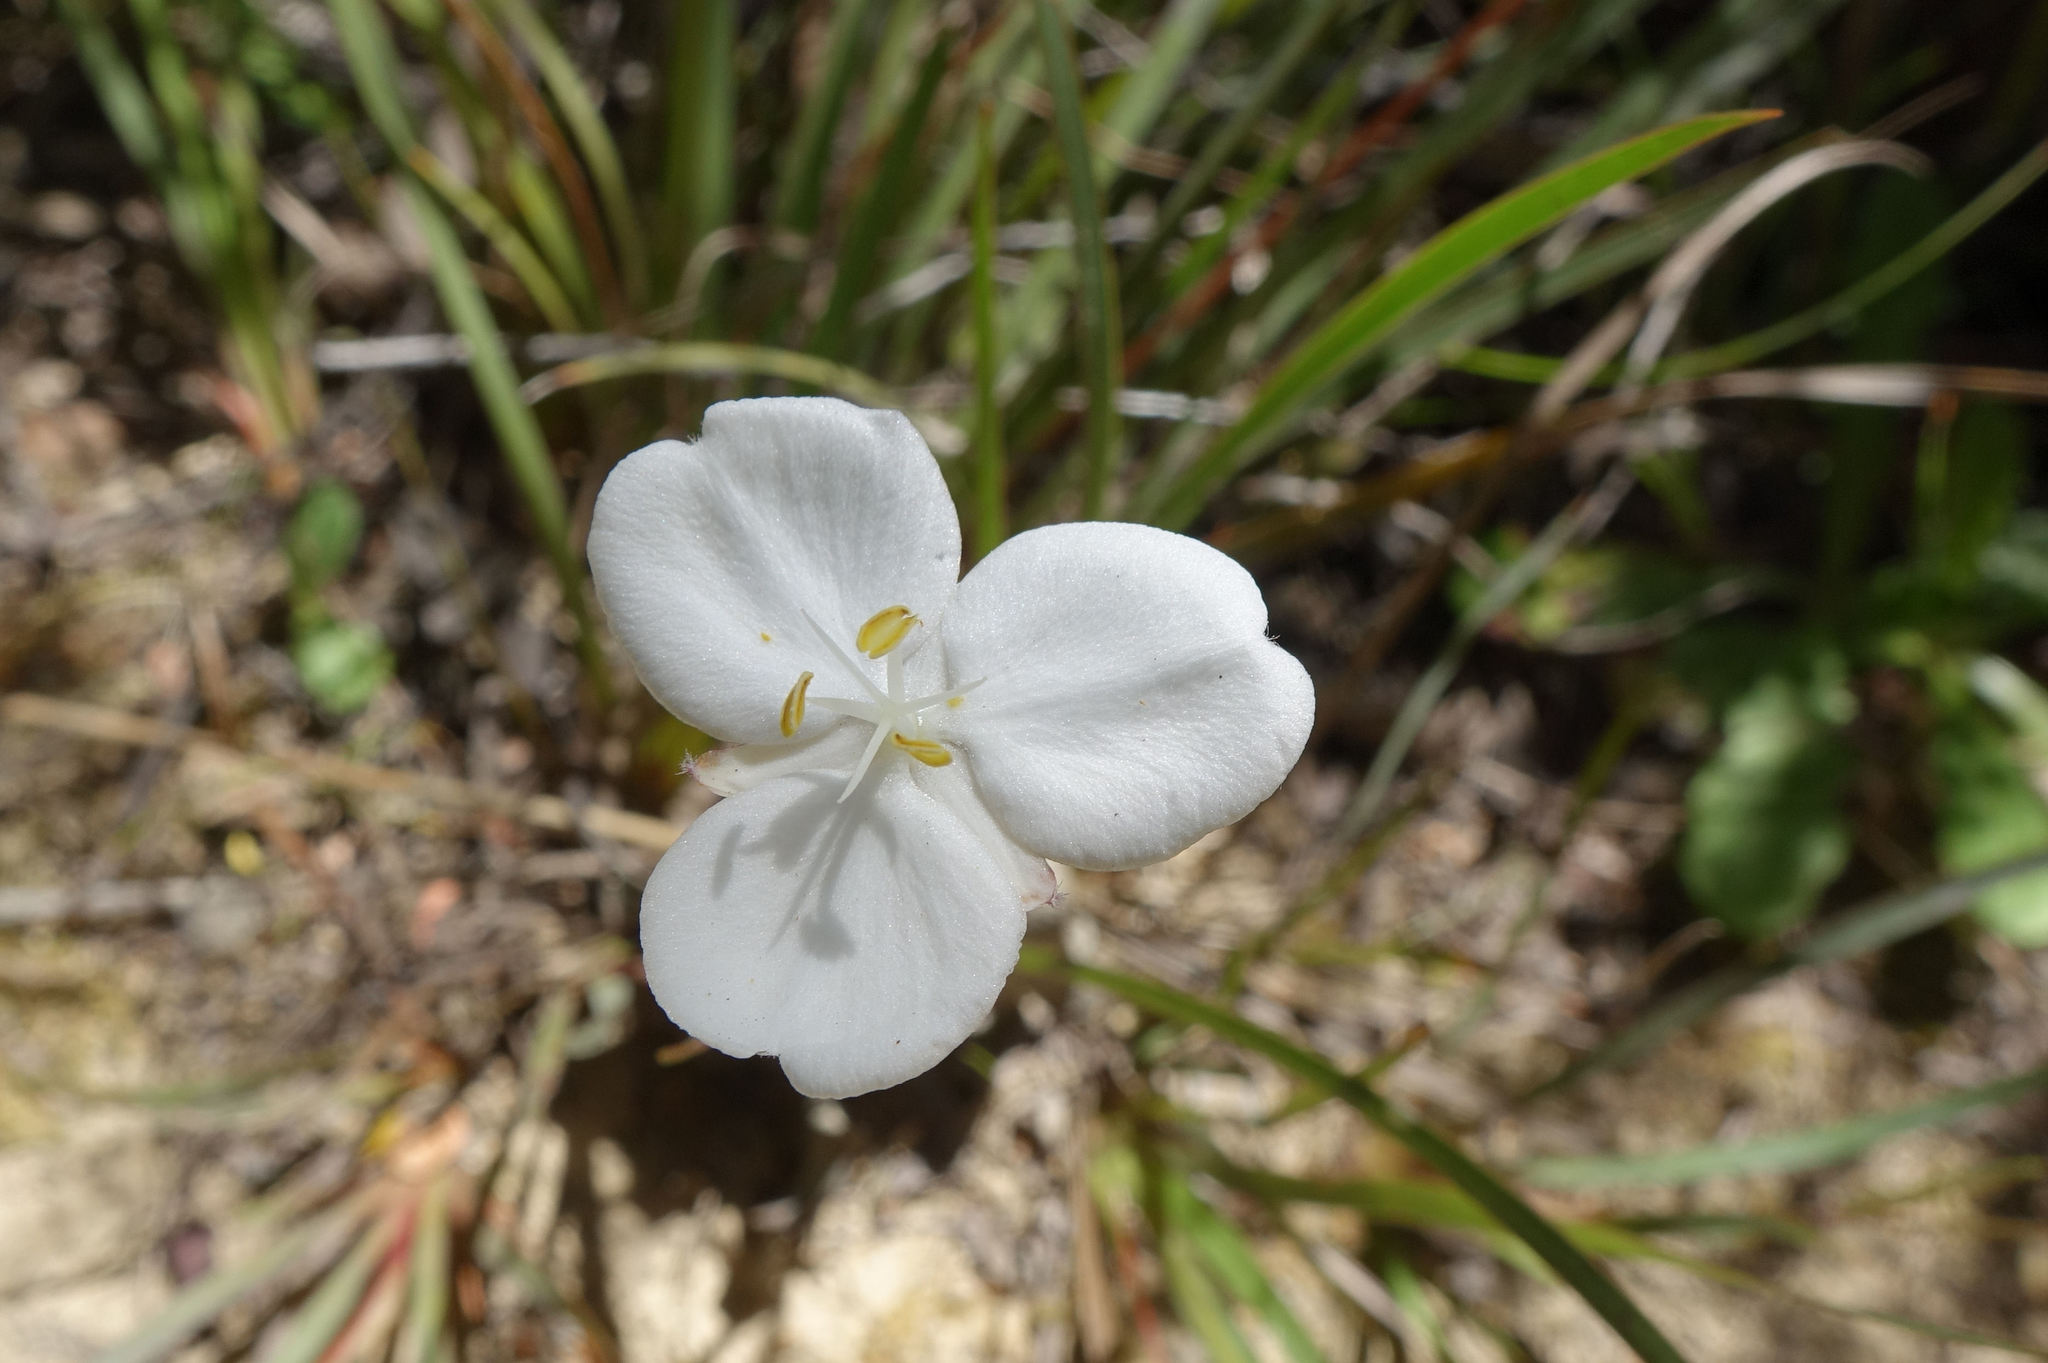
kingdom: Plantae
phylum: Tracheophyta
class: Liliopsida
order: Asparagales
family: Iridaceae
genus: Libertia
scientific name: Libertia edgariae
